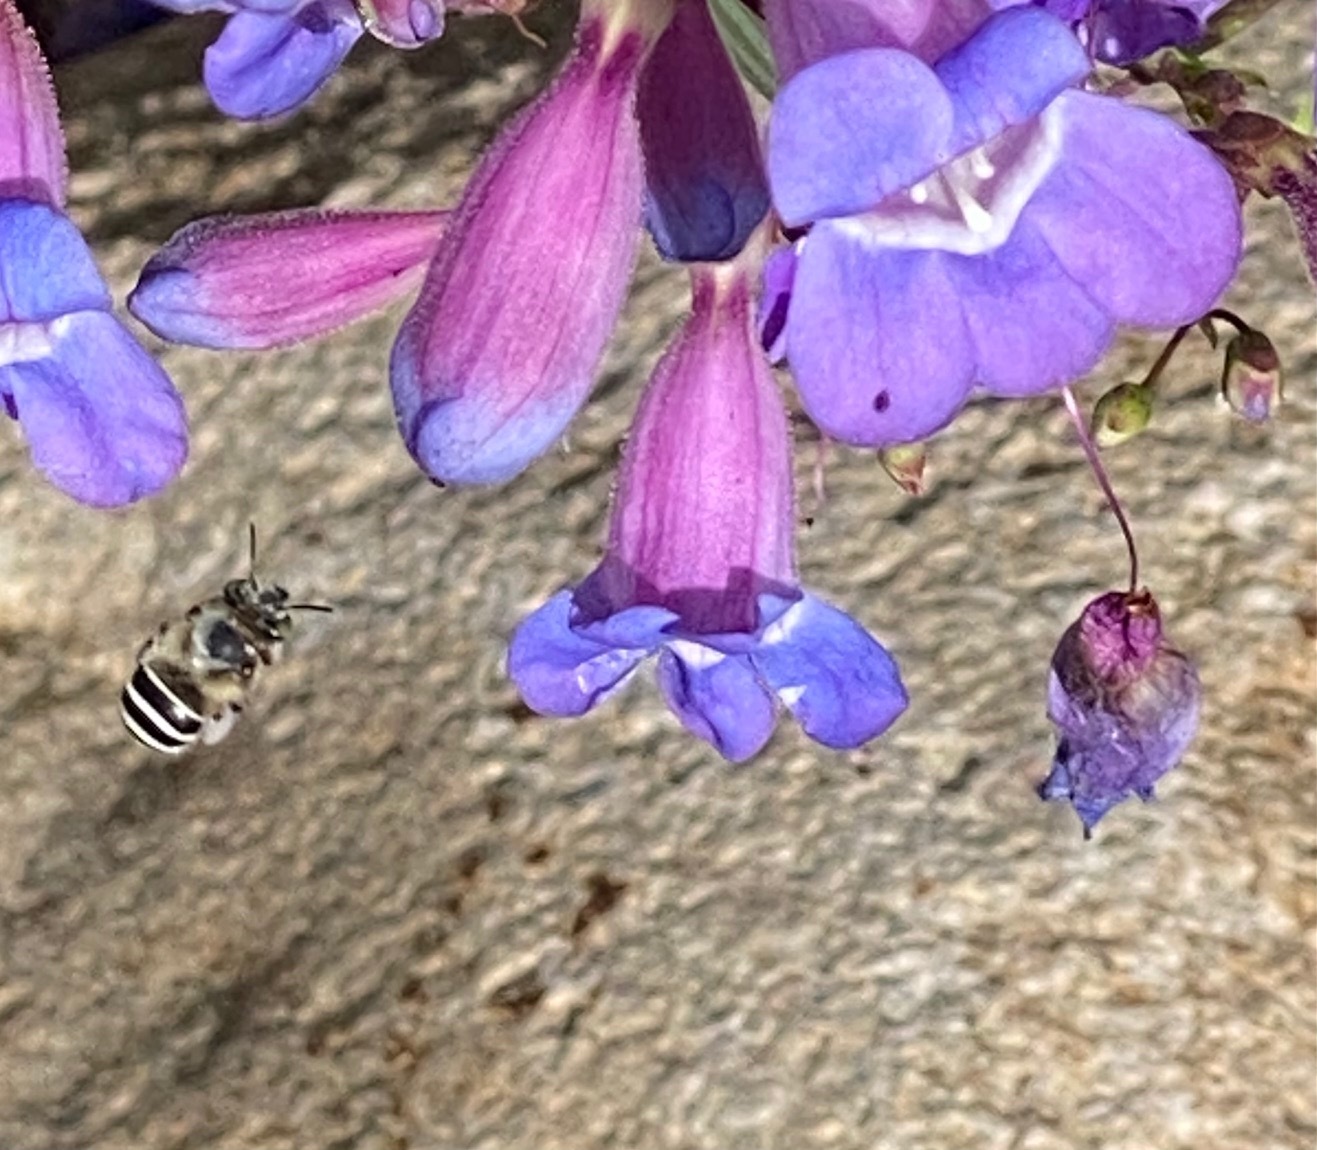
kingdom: Animalia
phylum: Arthropoda
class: Insecta
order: Hymenoptera
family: Apidae
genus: Anthophora
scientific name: Anthophora californica
